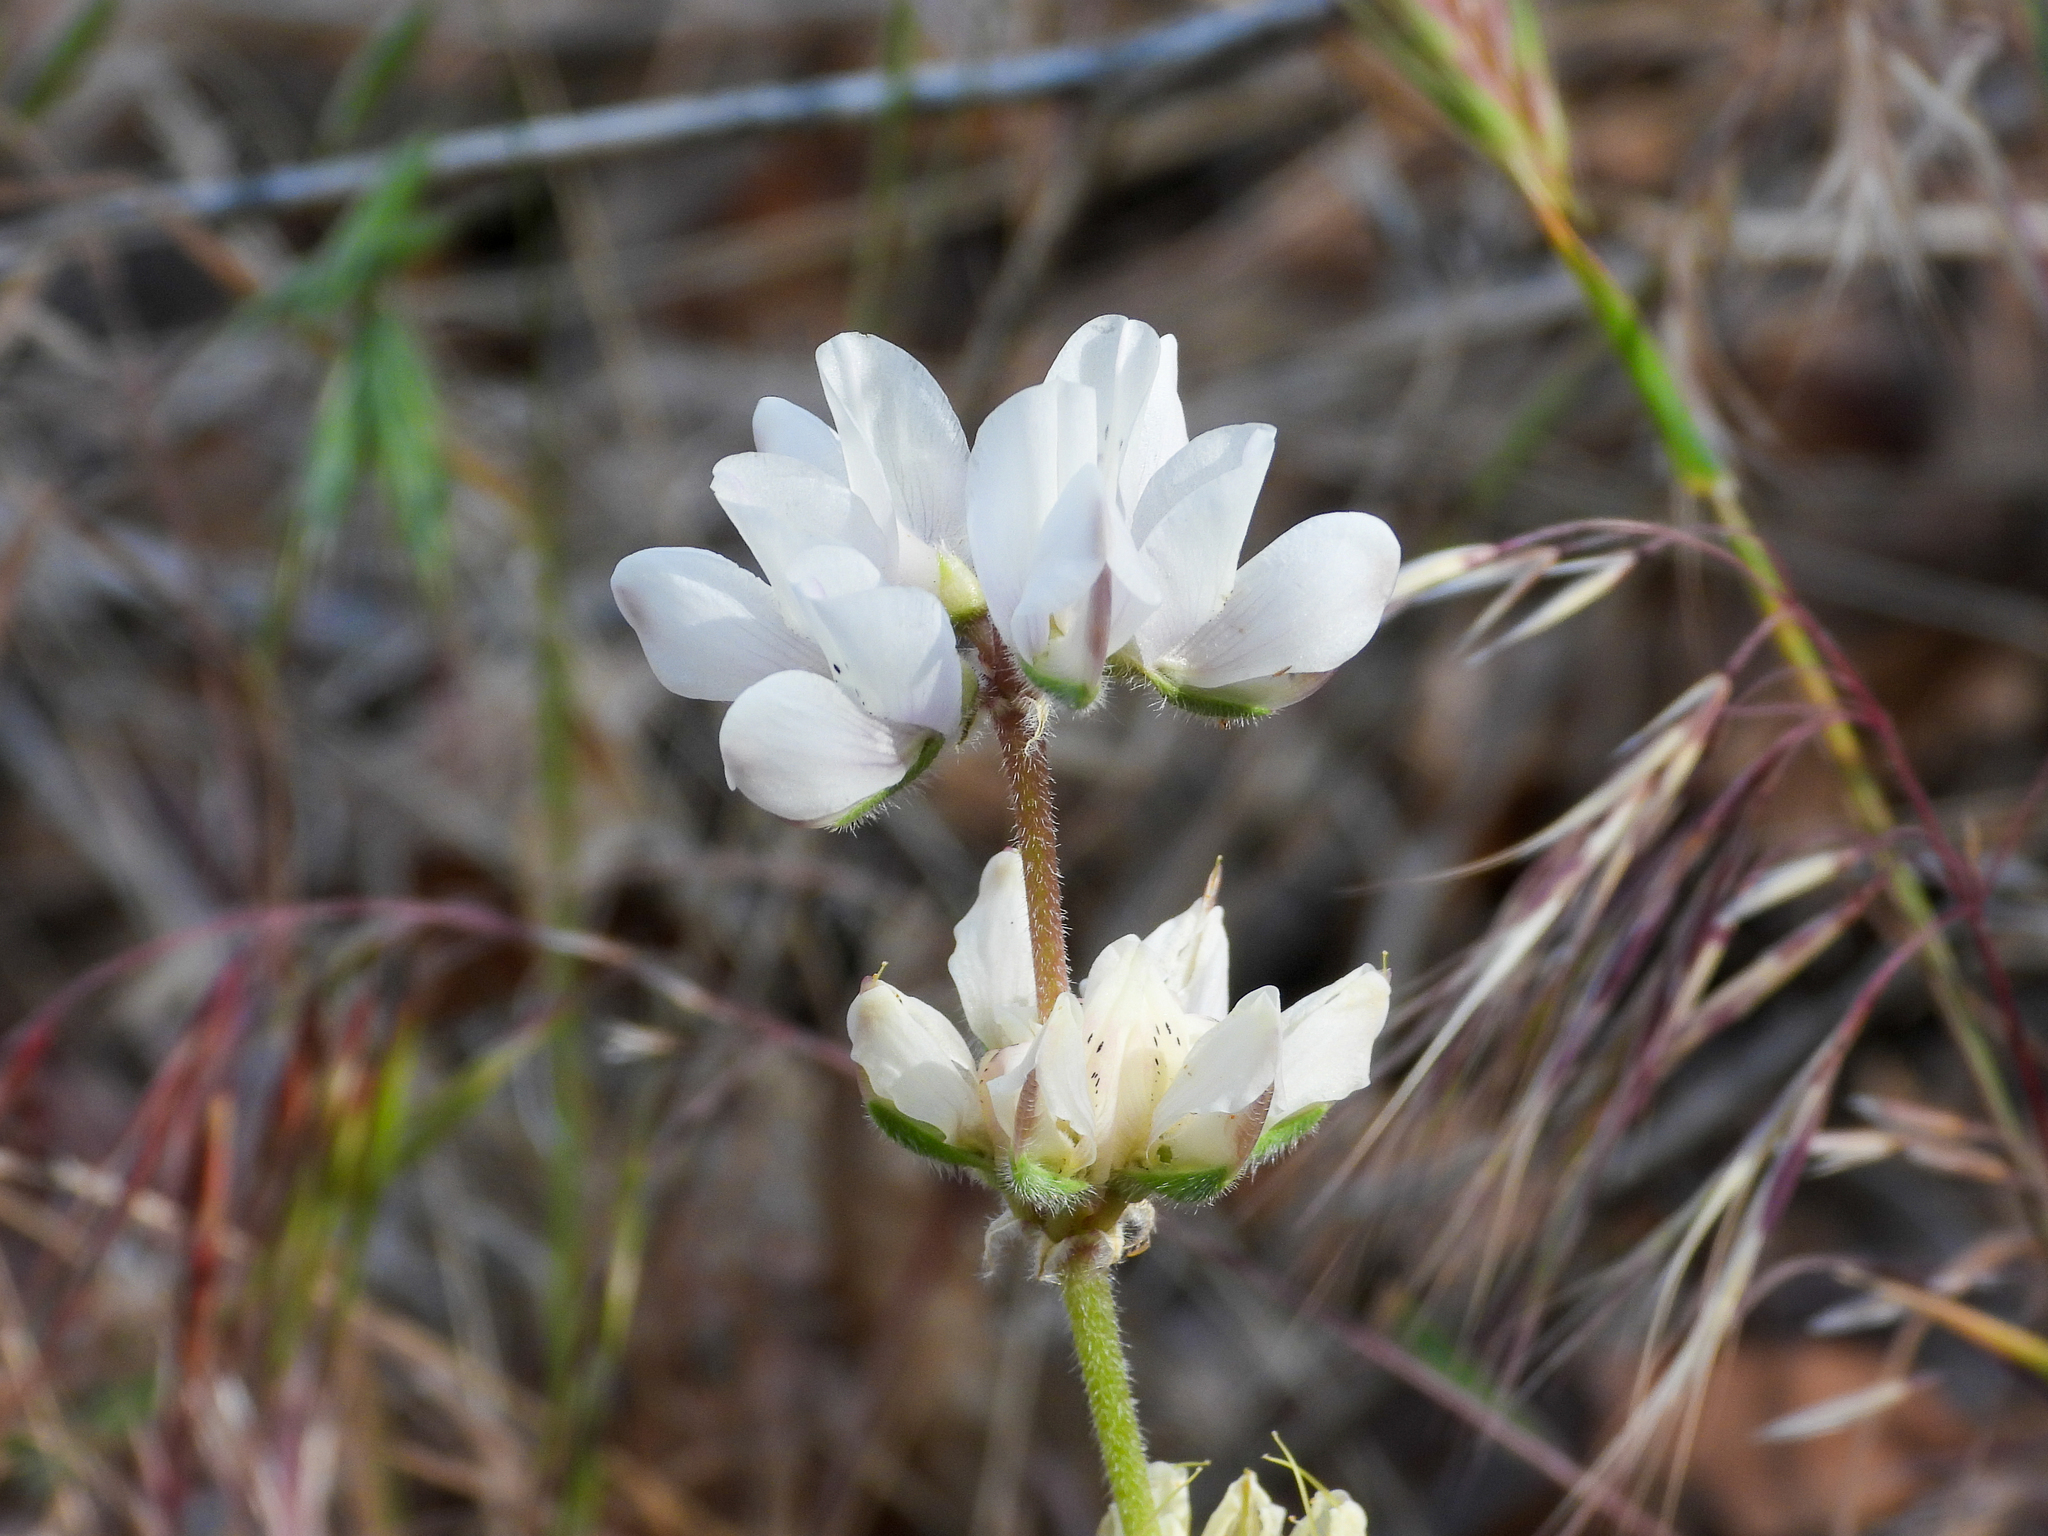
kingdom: Plantae
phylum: Tracheophyta
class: Magnoliopsida
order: Fabales
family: Fabaceae
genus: Lupinus
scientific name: Lupinus microcarpus
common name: Chick lupine
